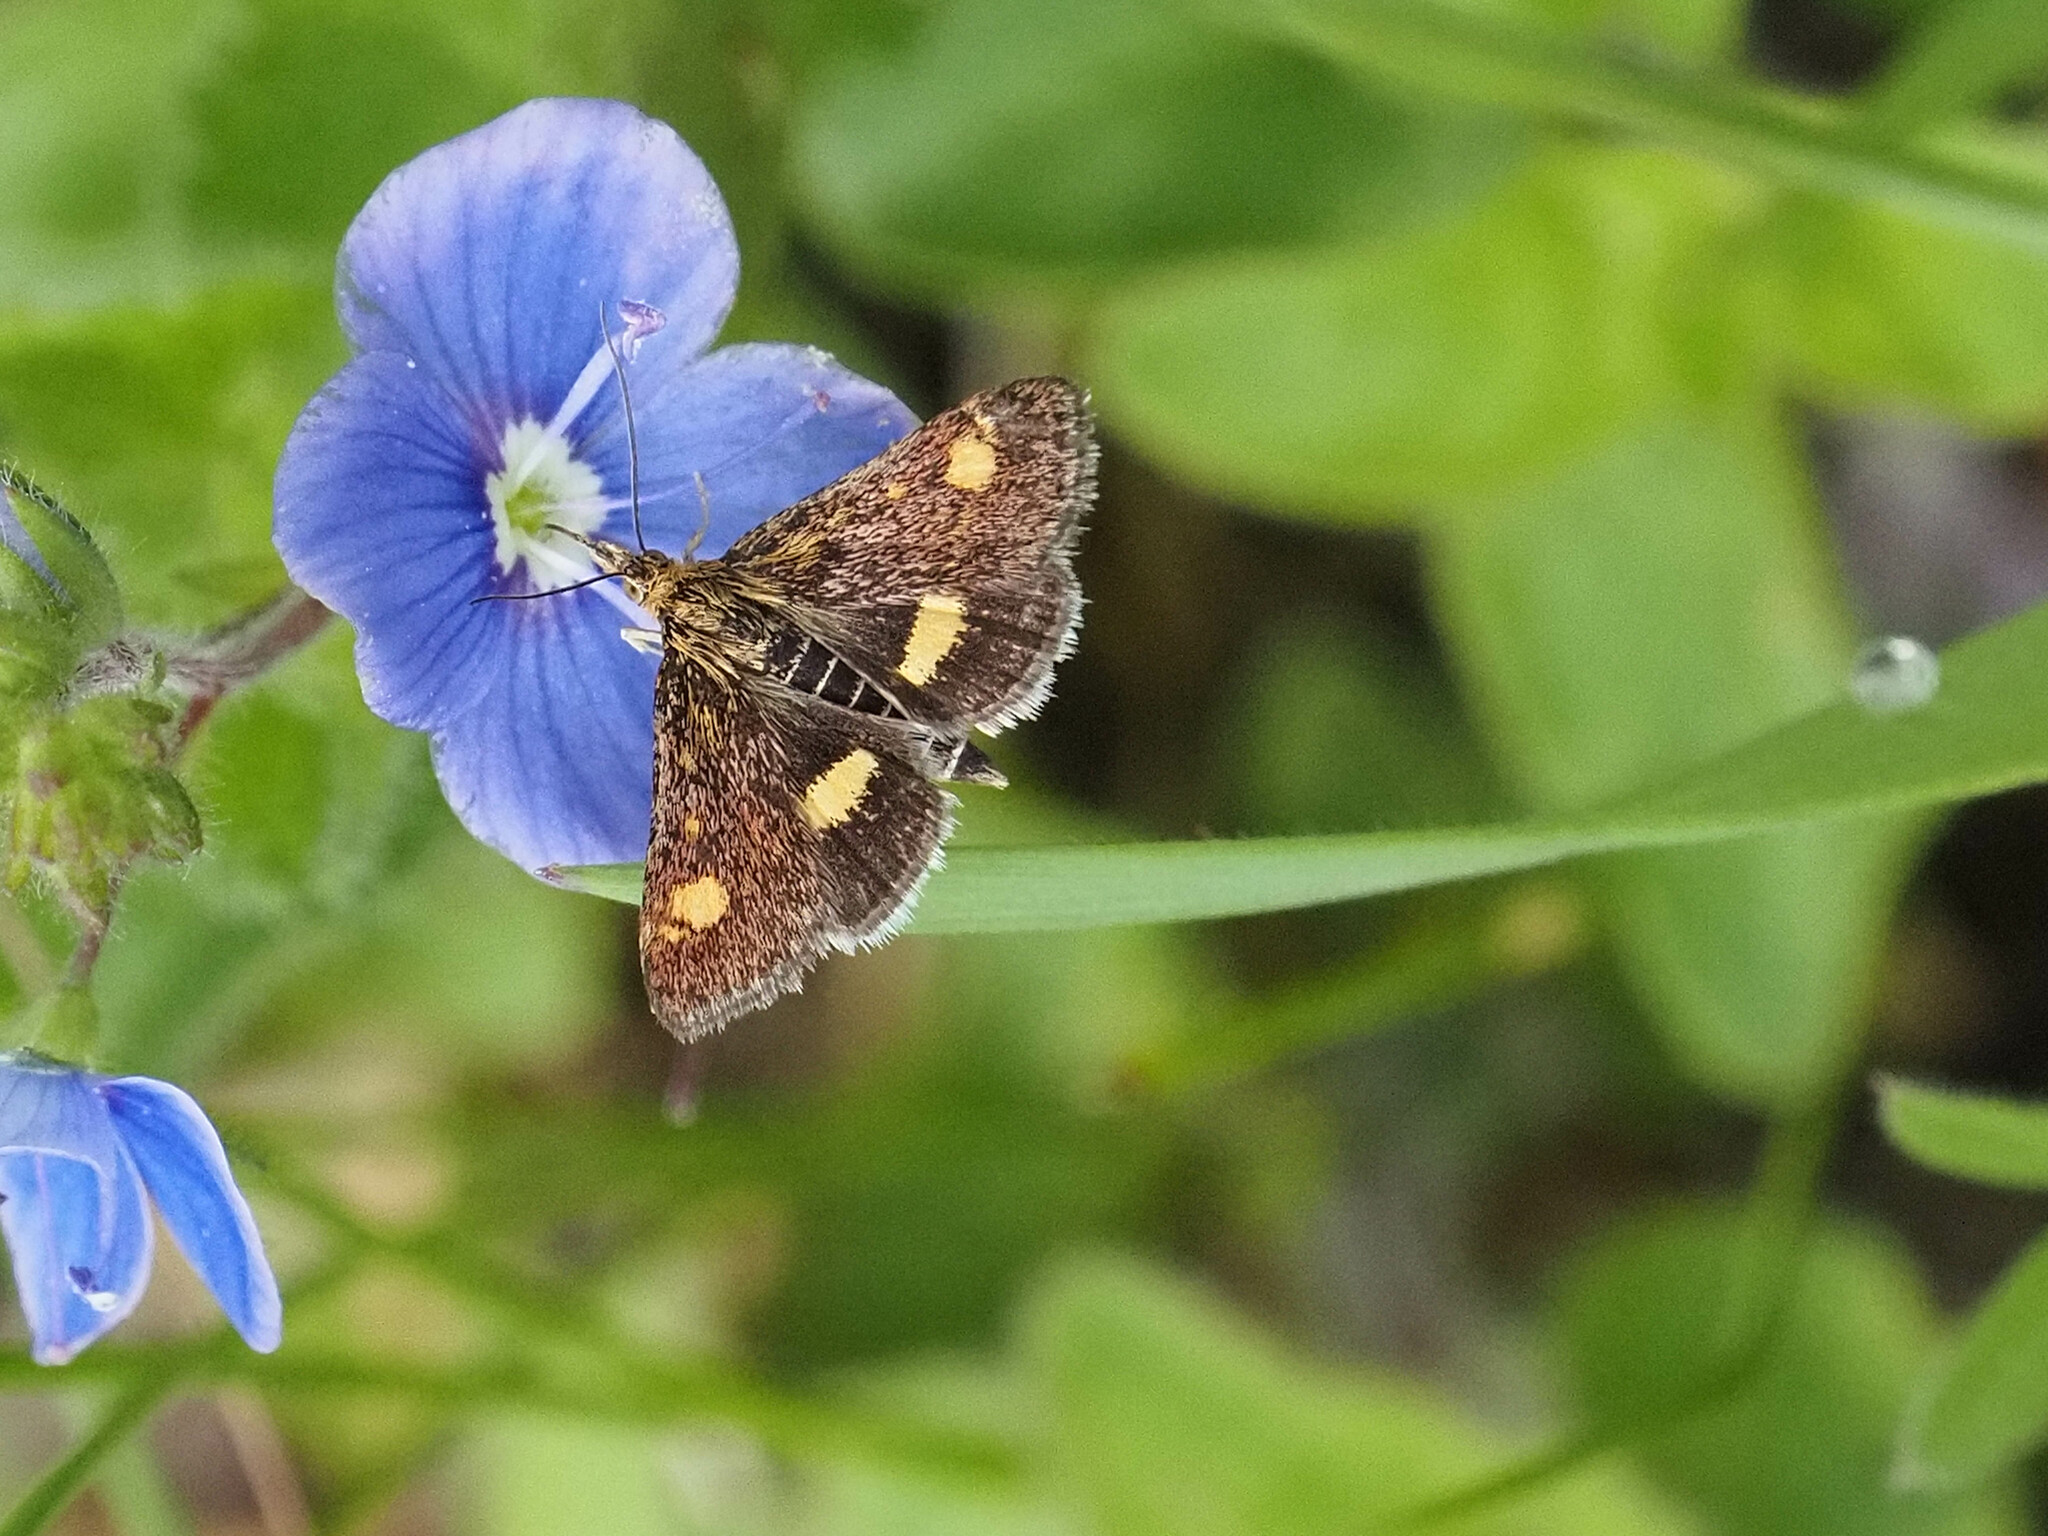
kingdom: Animalia
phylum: Arthropoda
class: Insecta
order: Lepidoptera
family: Crambidae
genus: Pyrausta
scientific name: Pyrausta aurata
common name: Small purple & gold
